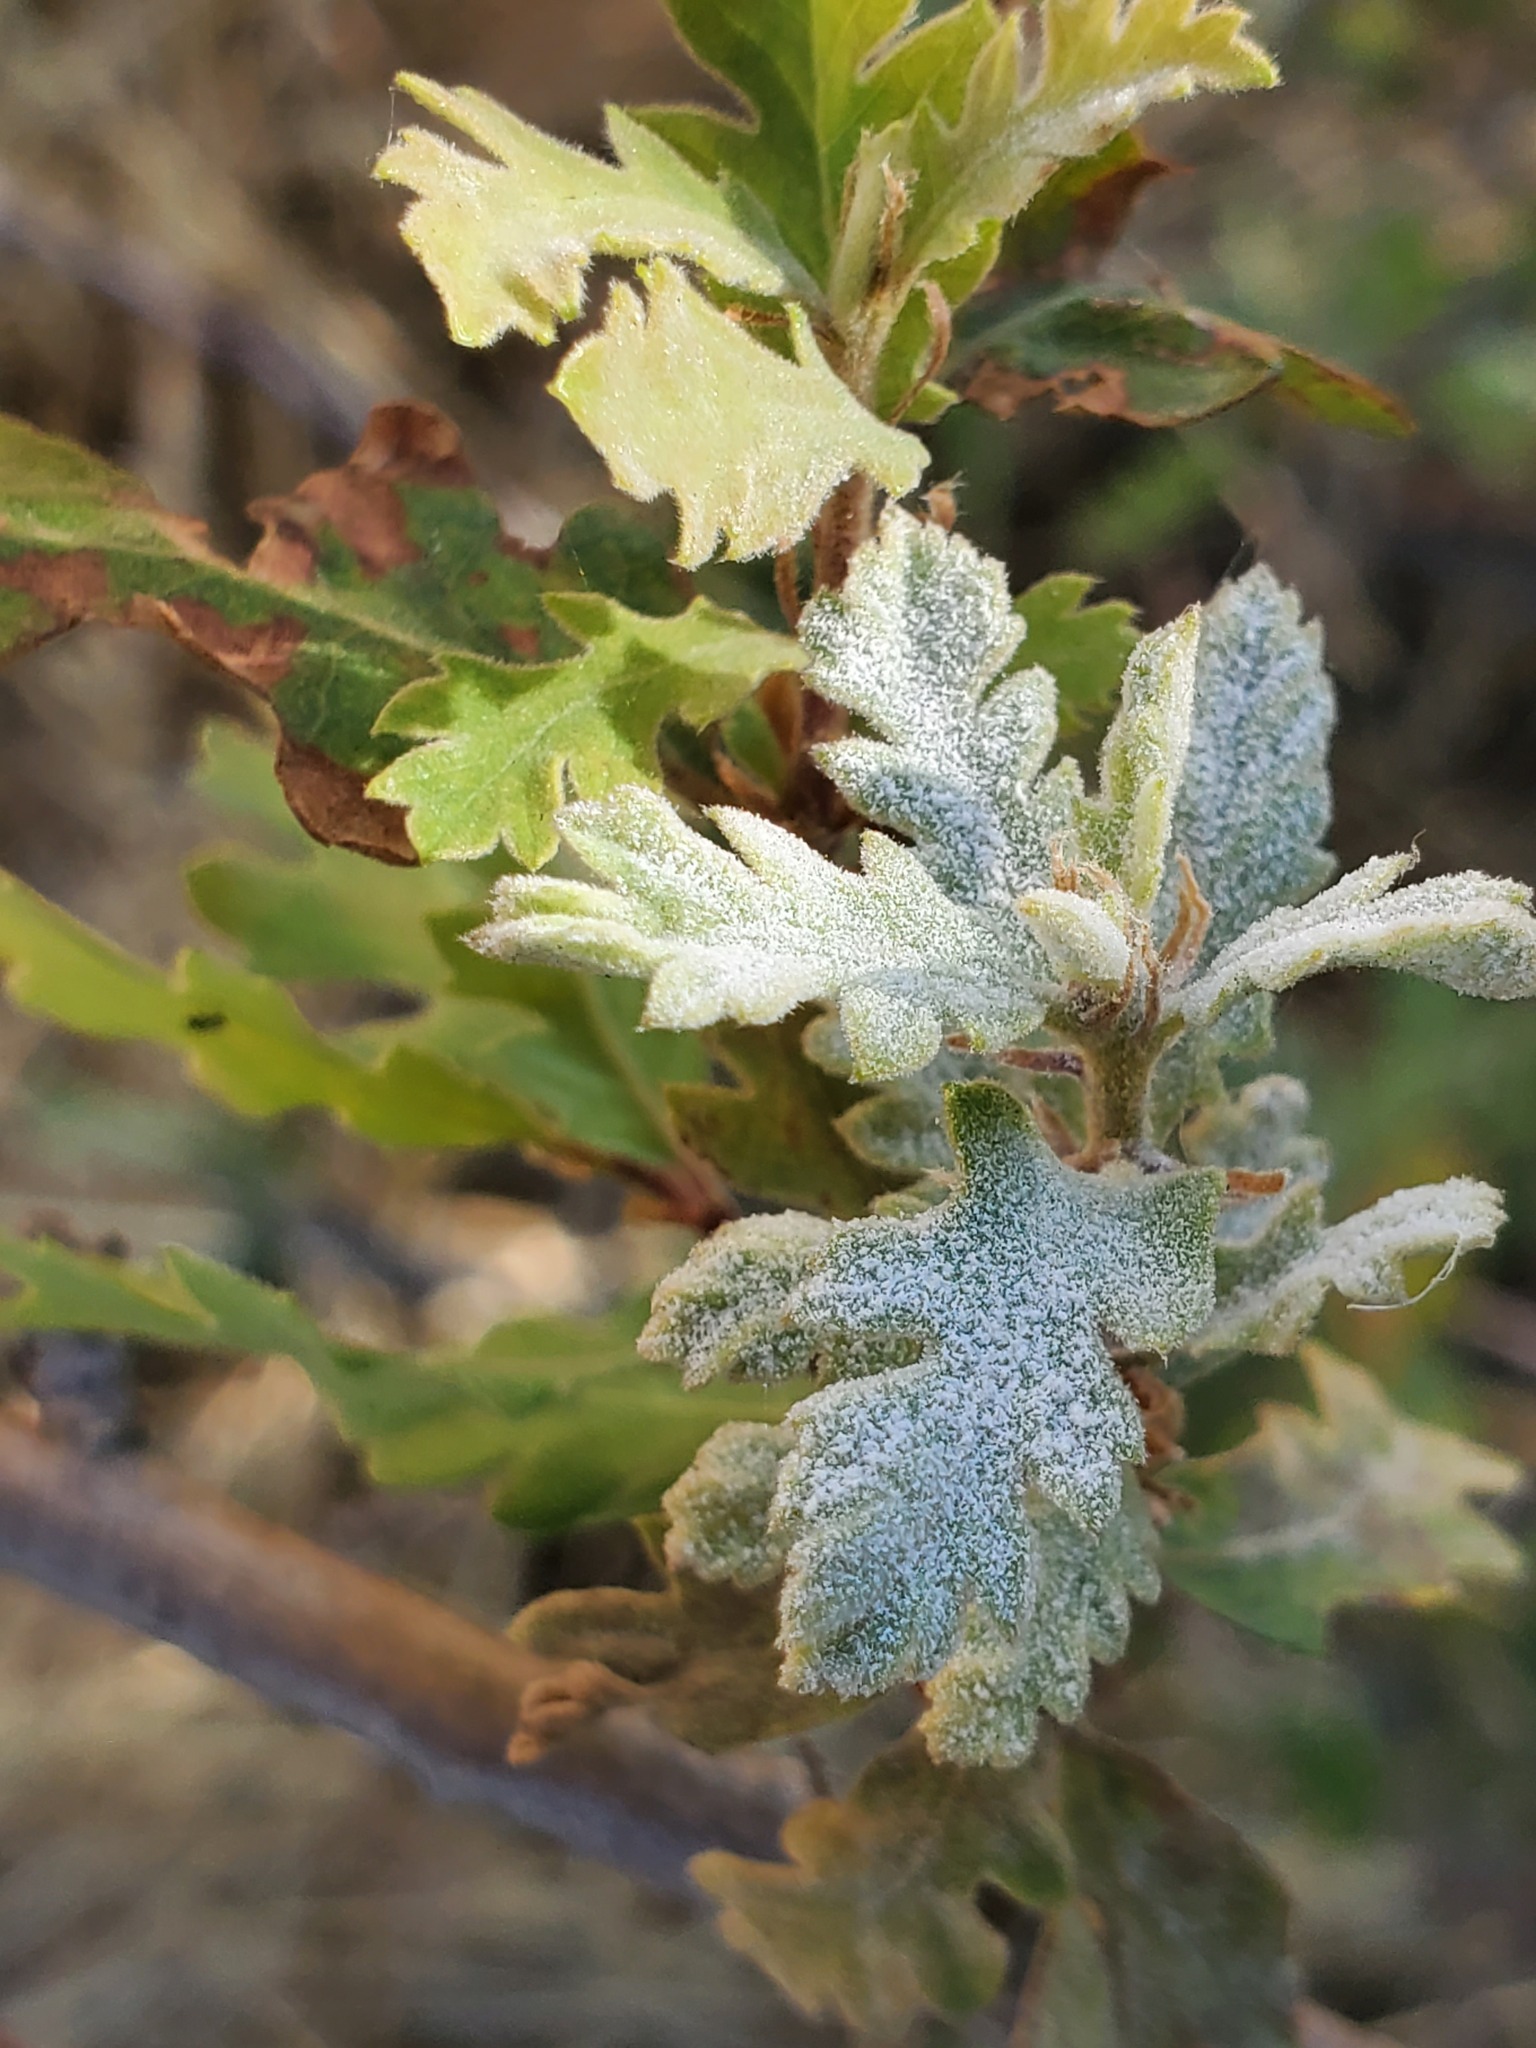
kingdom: Fungi
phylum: Ascomycota
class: Leotiomycetes
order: Helotiales
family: Erysiphaceae
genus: Erysiphe
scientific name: Erysiphe alphitoides
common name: Oak mildew
